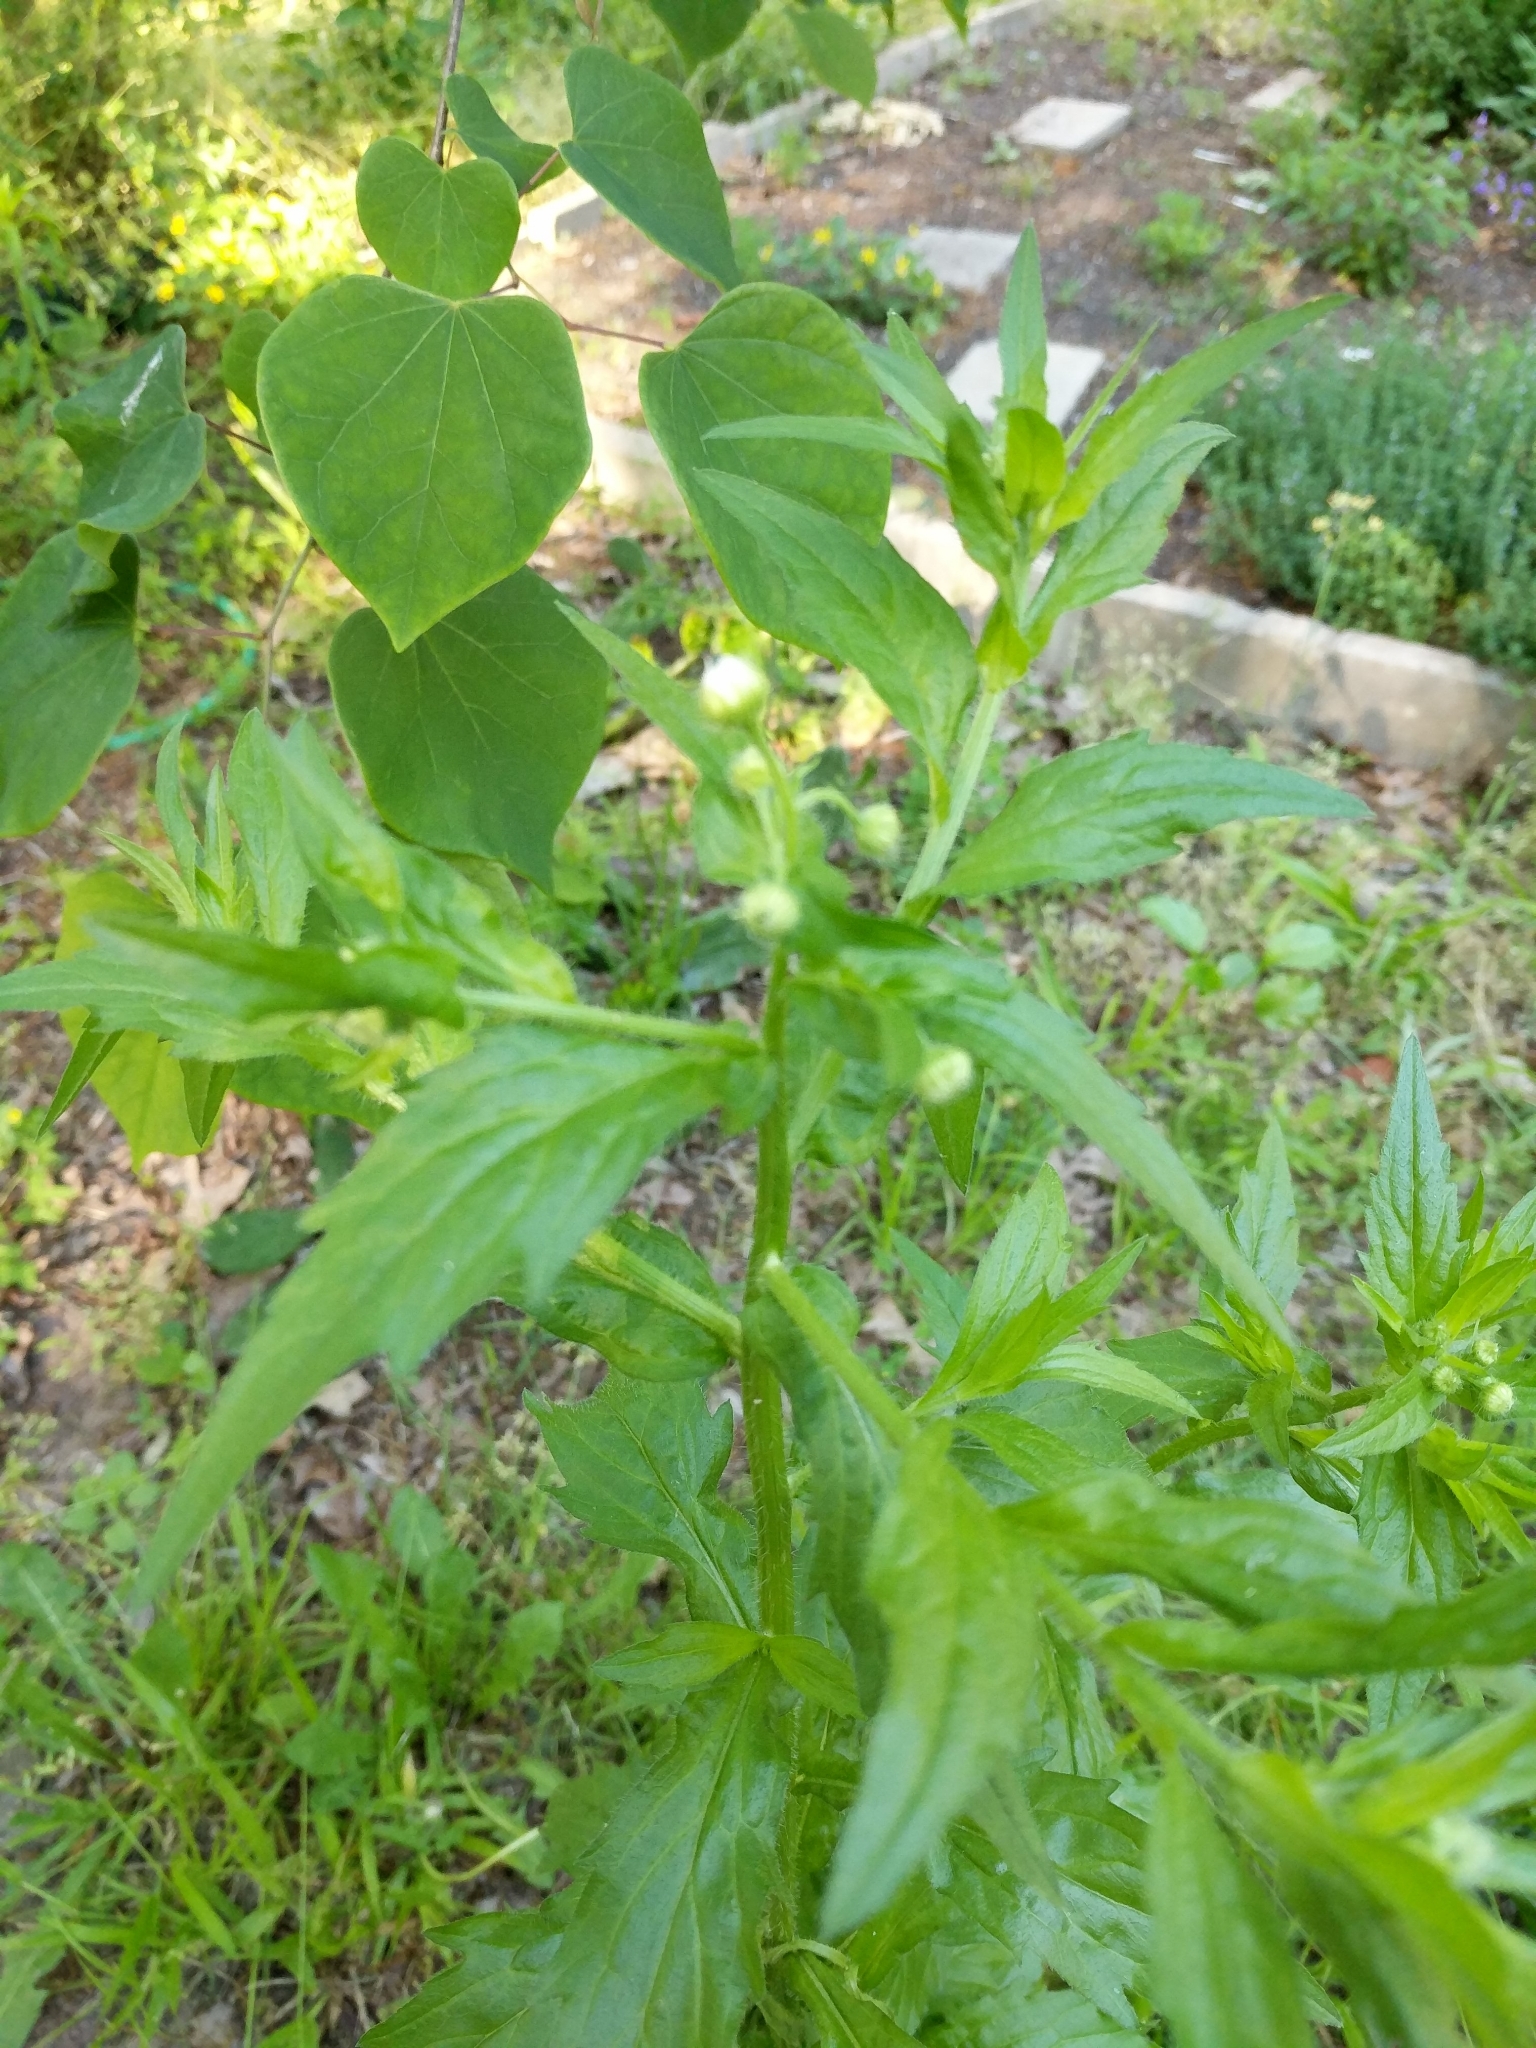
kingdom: Plantae
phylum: Tracheophyta
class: Magnoliopsida
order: Asterales
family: Asteraceae
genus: Erigeron
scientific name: Erigeron annuus
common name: Tall fleabane
